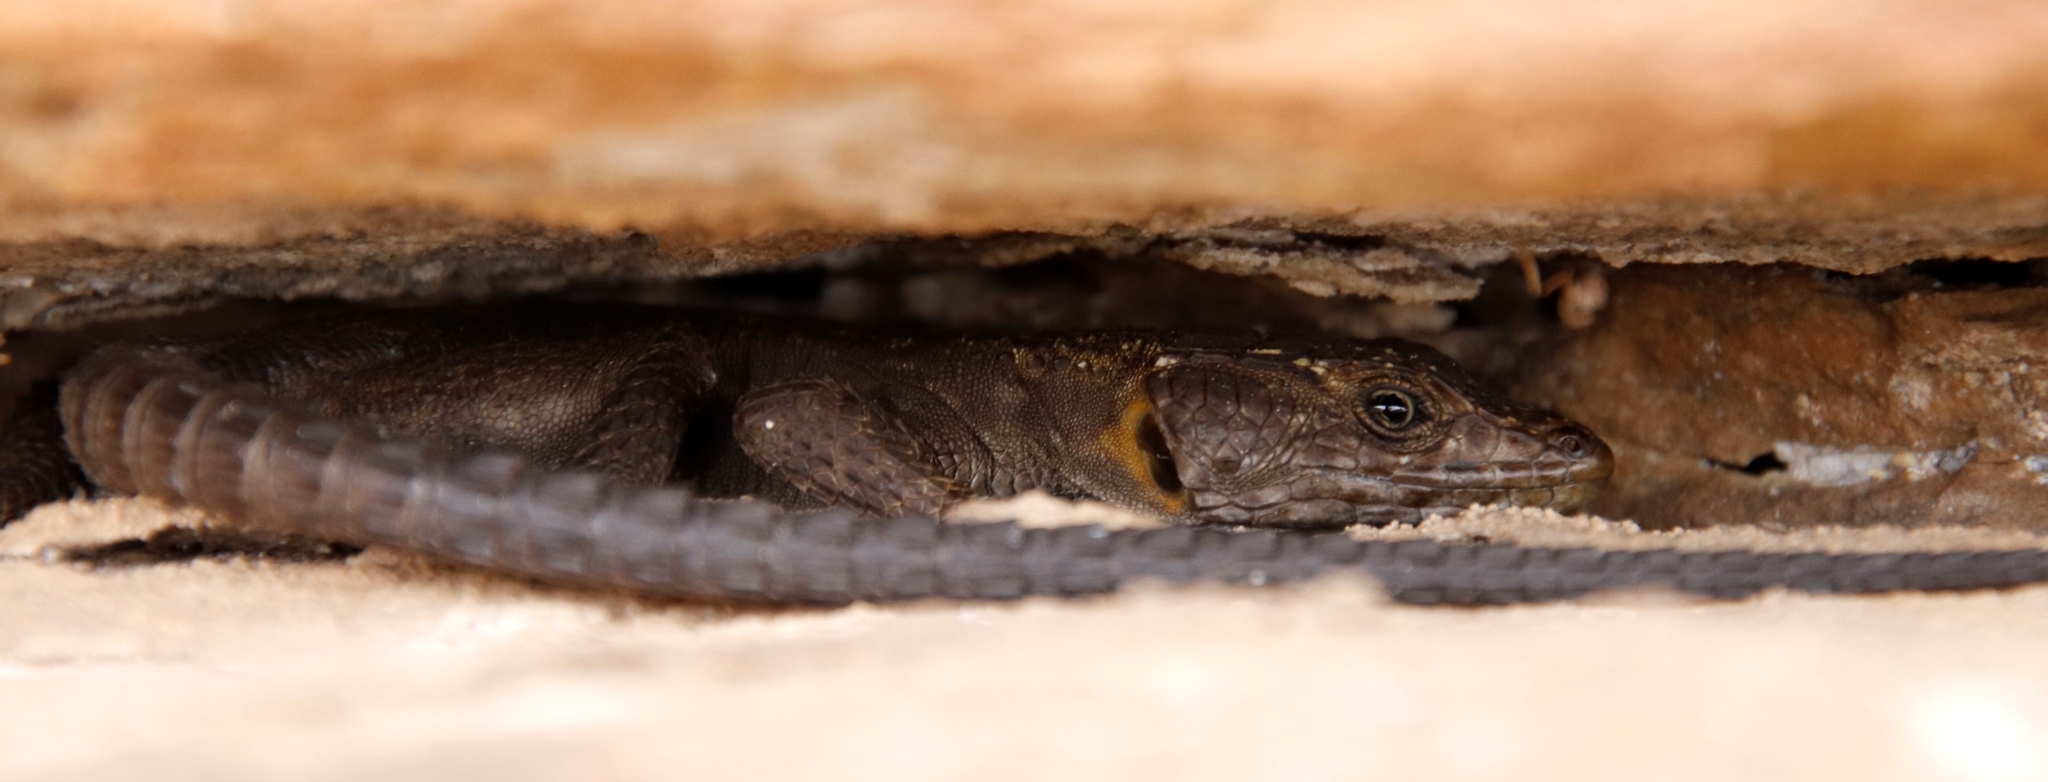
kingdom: Animalia
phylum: Chordata
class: Squamata
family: Cordylidae
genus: Hemicordylus
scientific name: Hemicordylus capensis
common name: Graceful crag lizard
